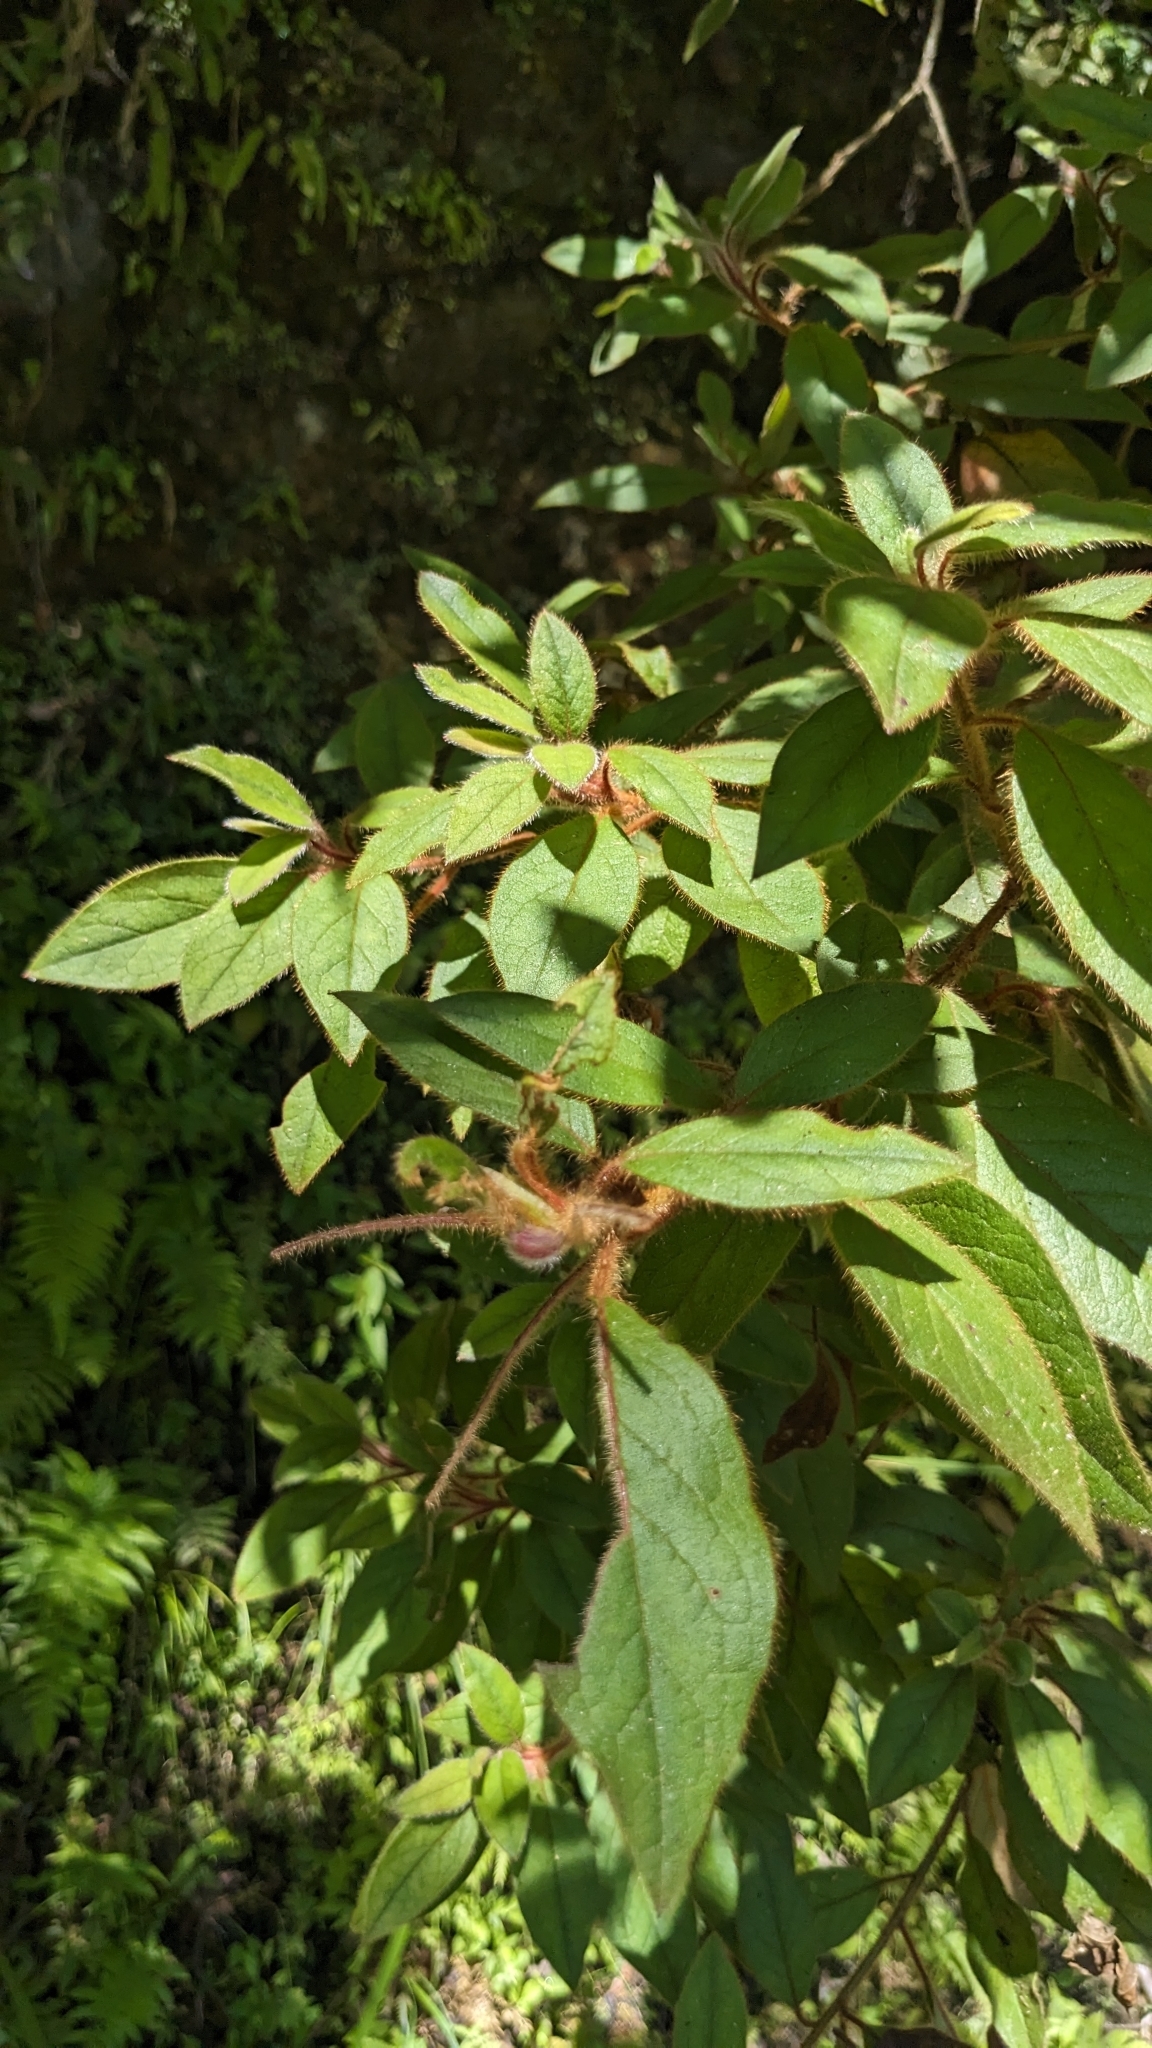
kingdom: Plantae
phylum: Tracheophyta
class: Magnoliopsida
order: Ericales
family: Ericaceae
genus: Rhododendron
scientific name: Rhododendron oldhamii
